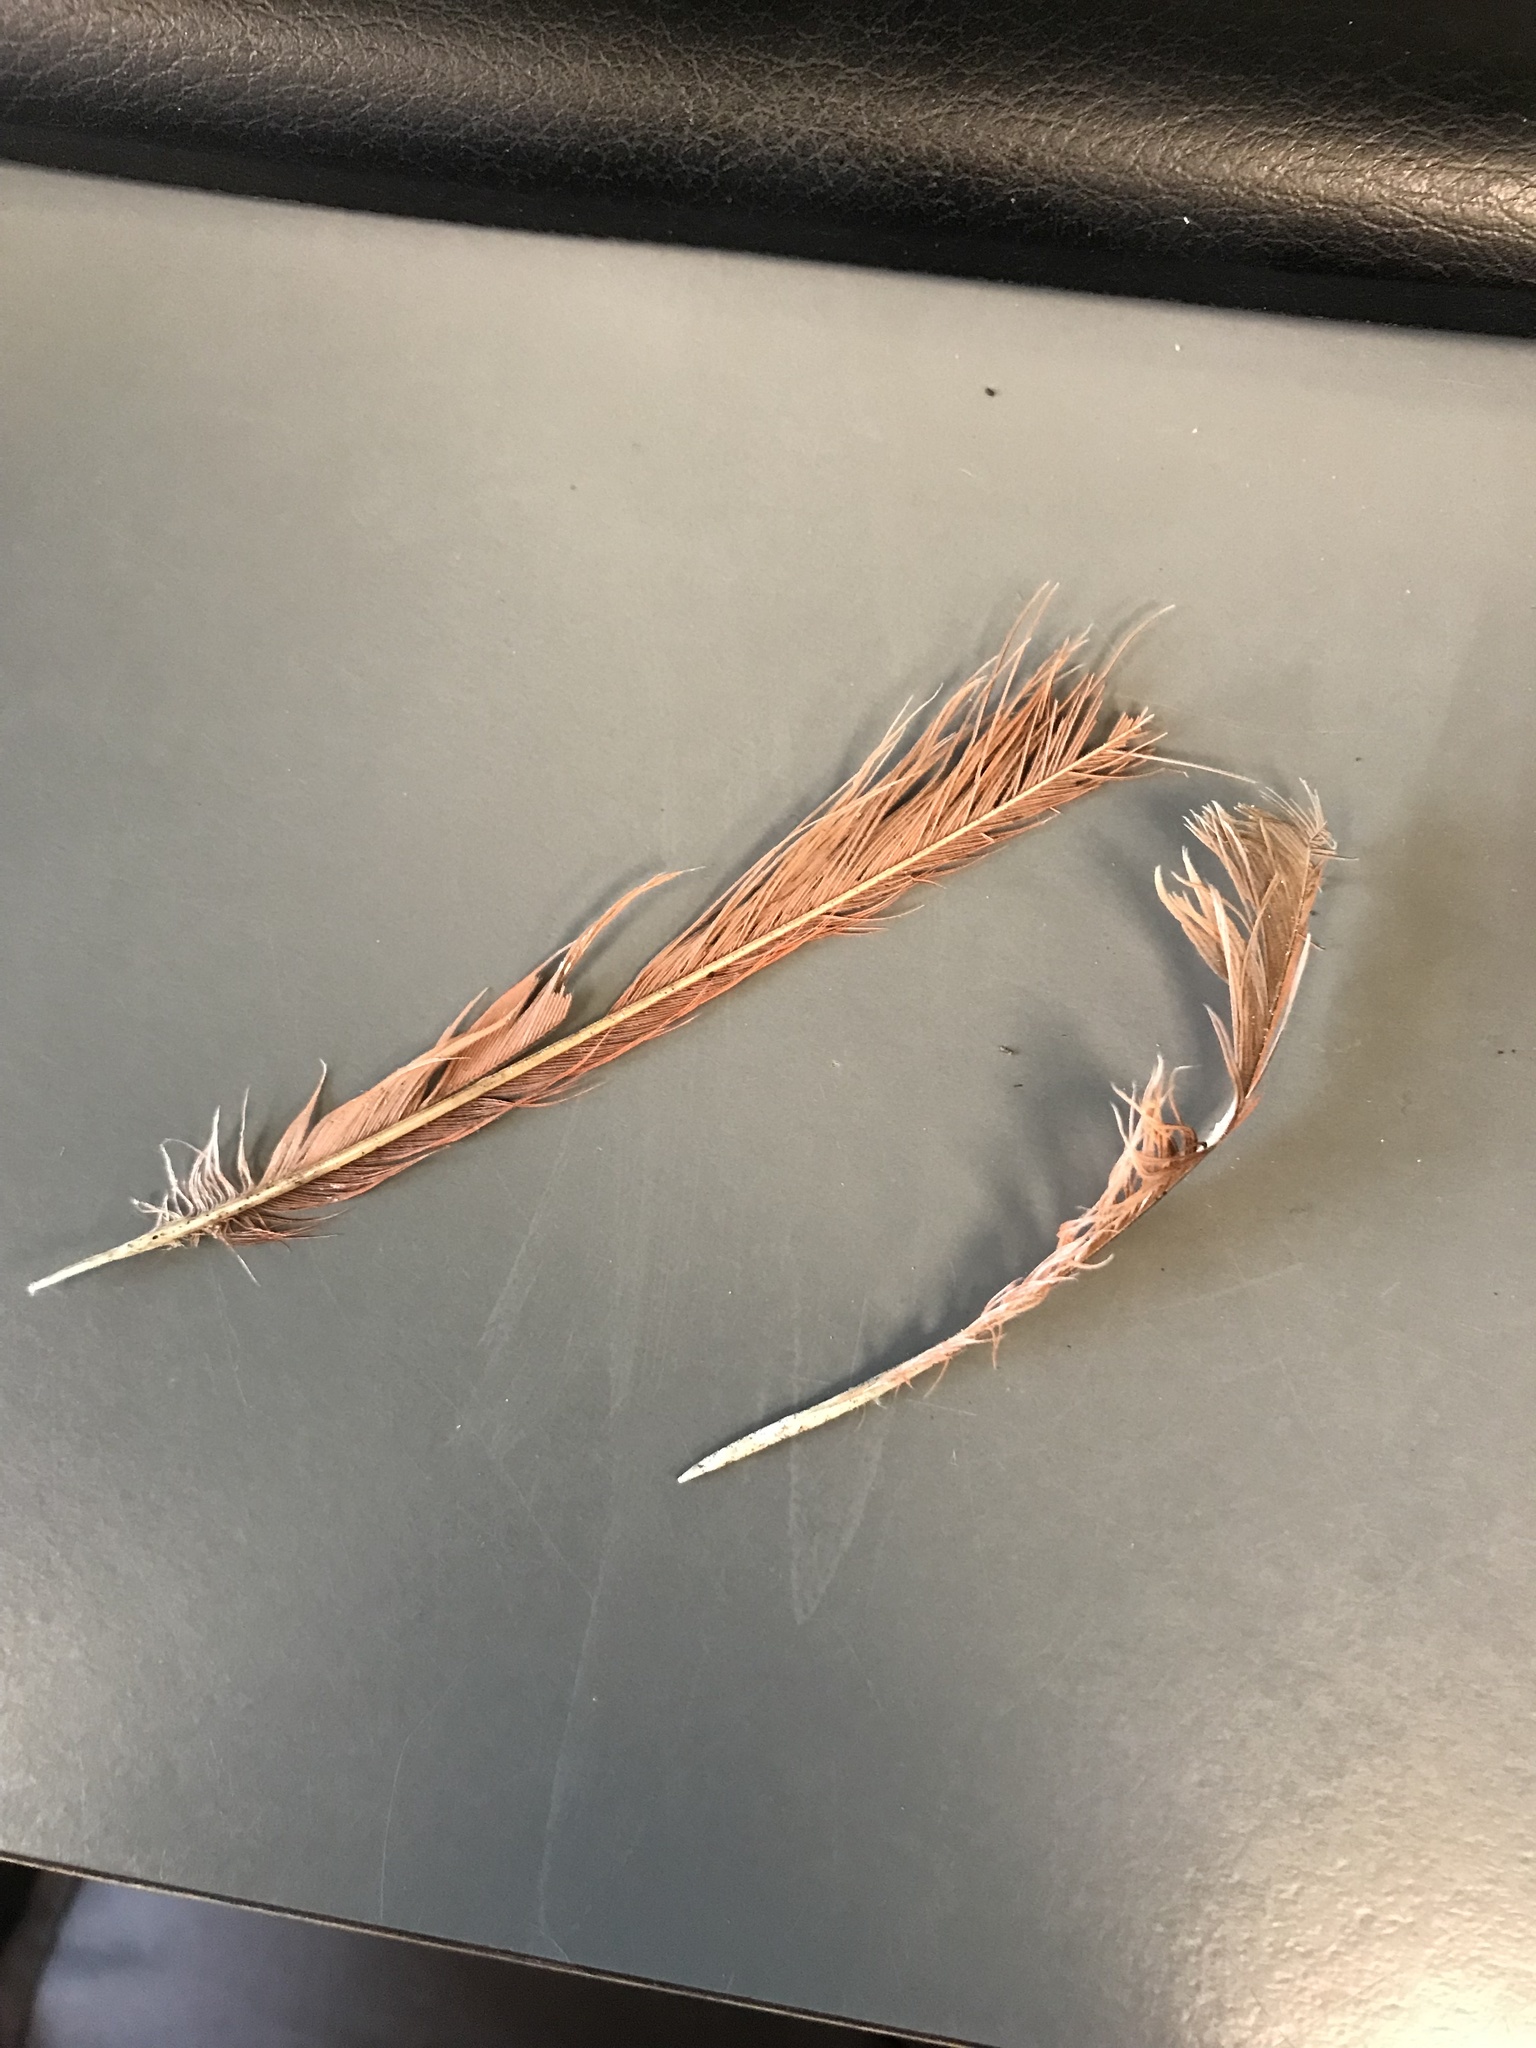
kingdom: Animalia
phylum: Chordata
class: Aves
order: Passeriformes
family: Cardinalidae
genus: Cardinalis
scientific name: Cardinalis cardinalis
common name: Northern cardinal
